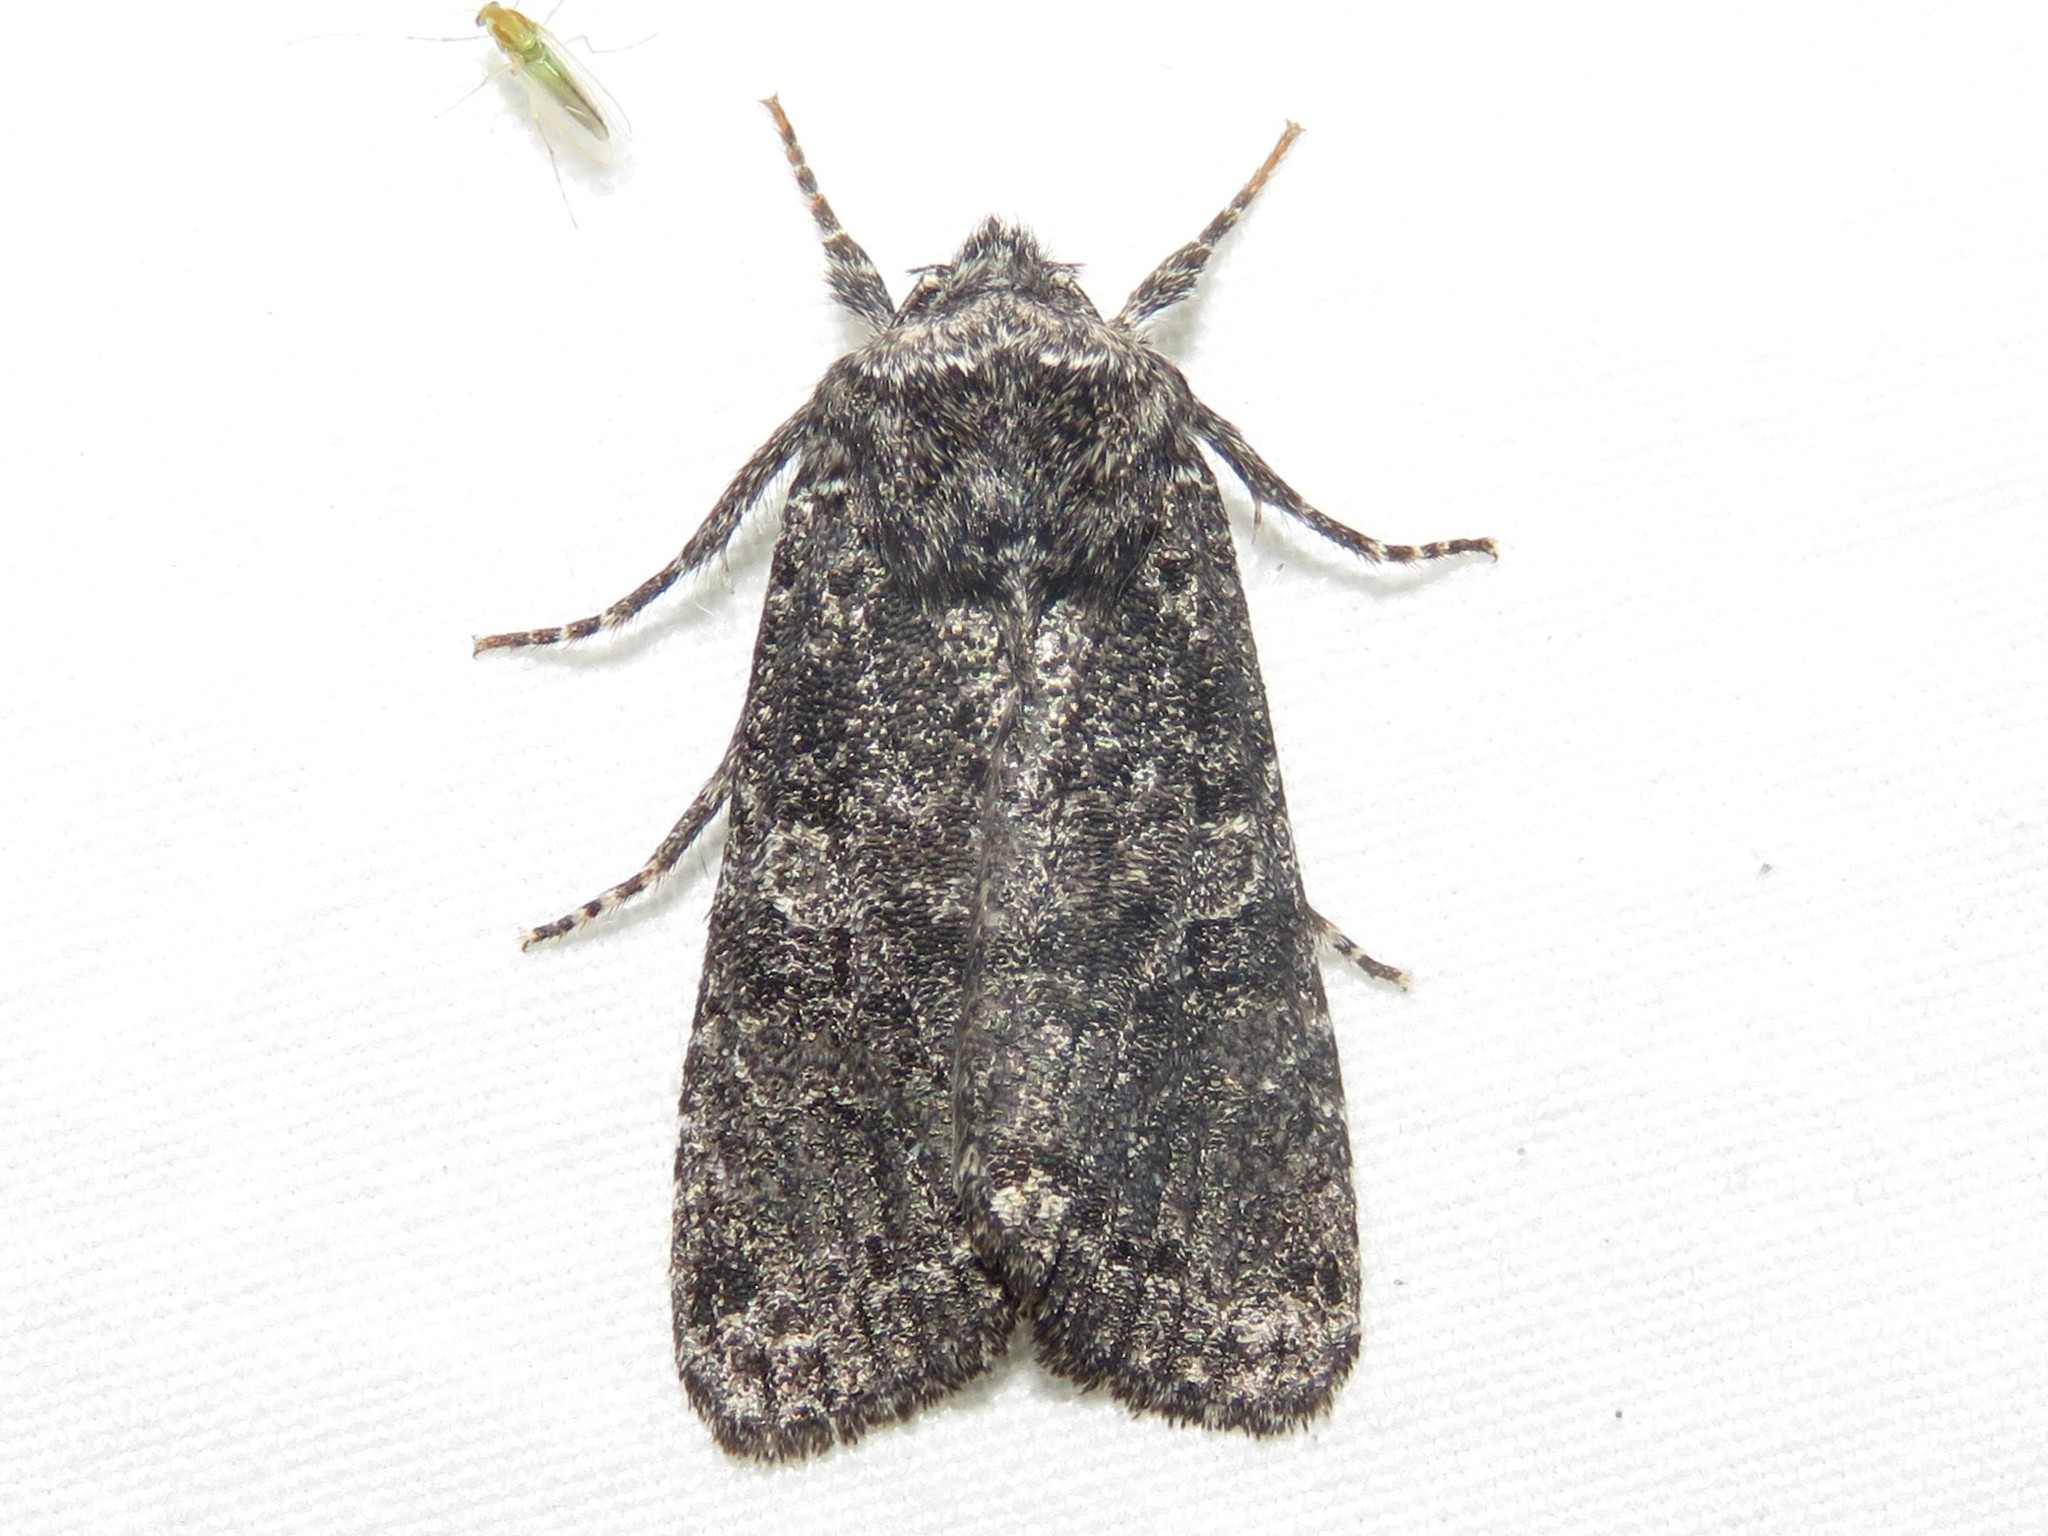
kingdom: Animalia
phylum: Arthropoda
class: Insecta
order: Lepidoptera
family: Noctuidae
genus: Egira
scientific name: Egira dolosa
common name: Lined black aspen cat.
